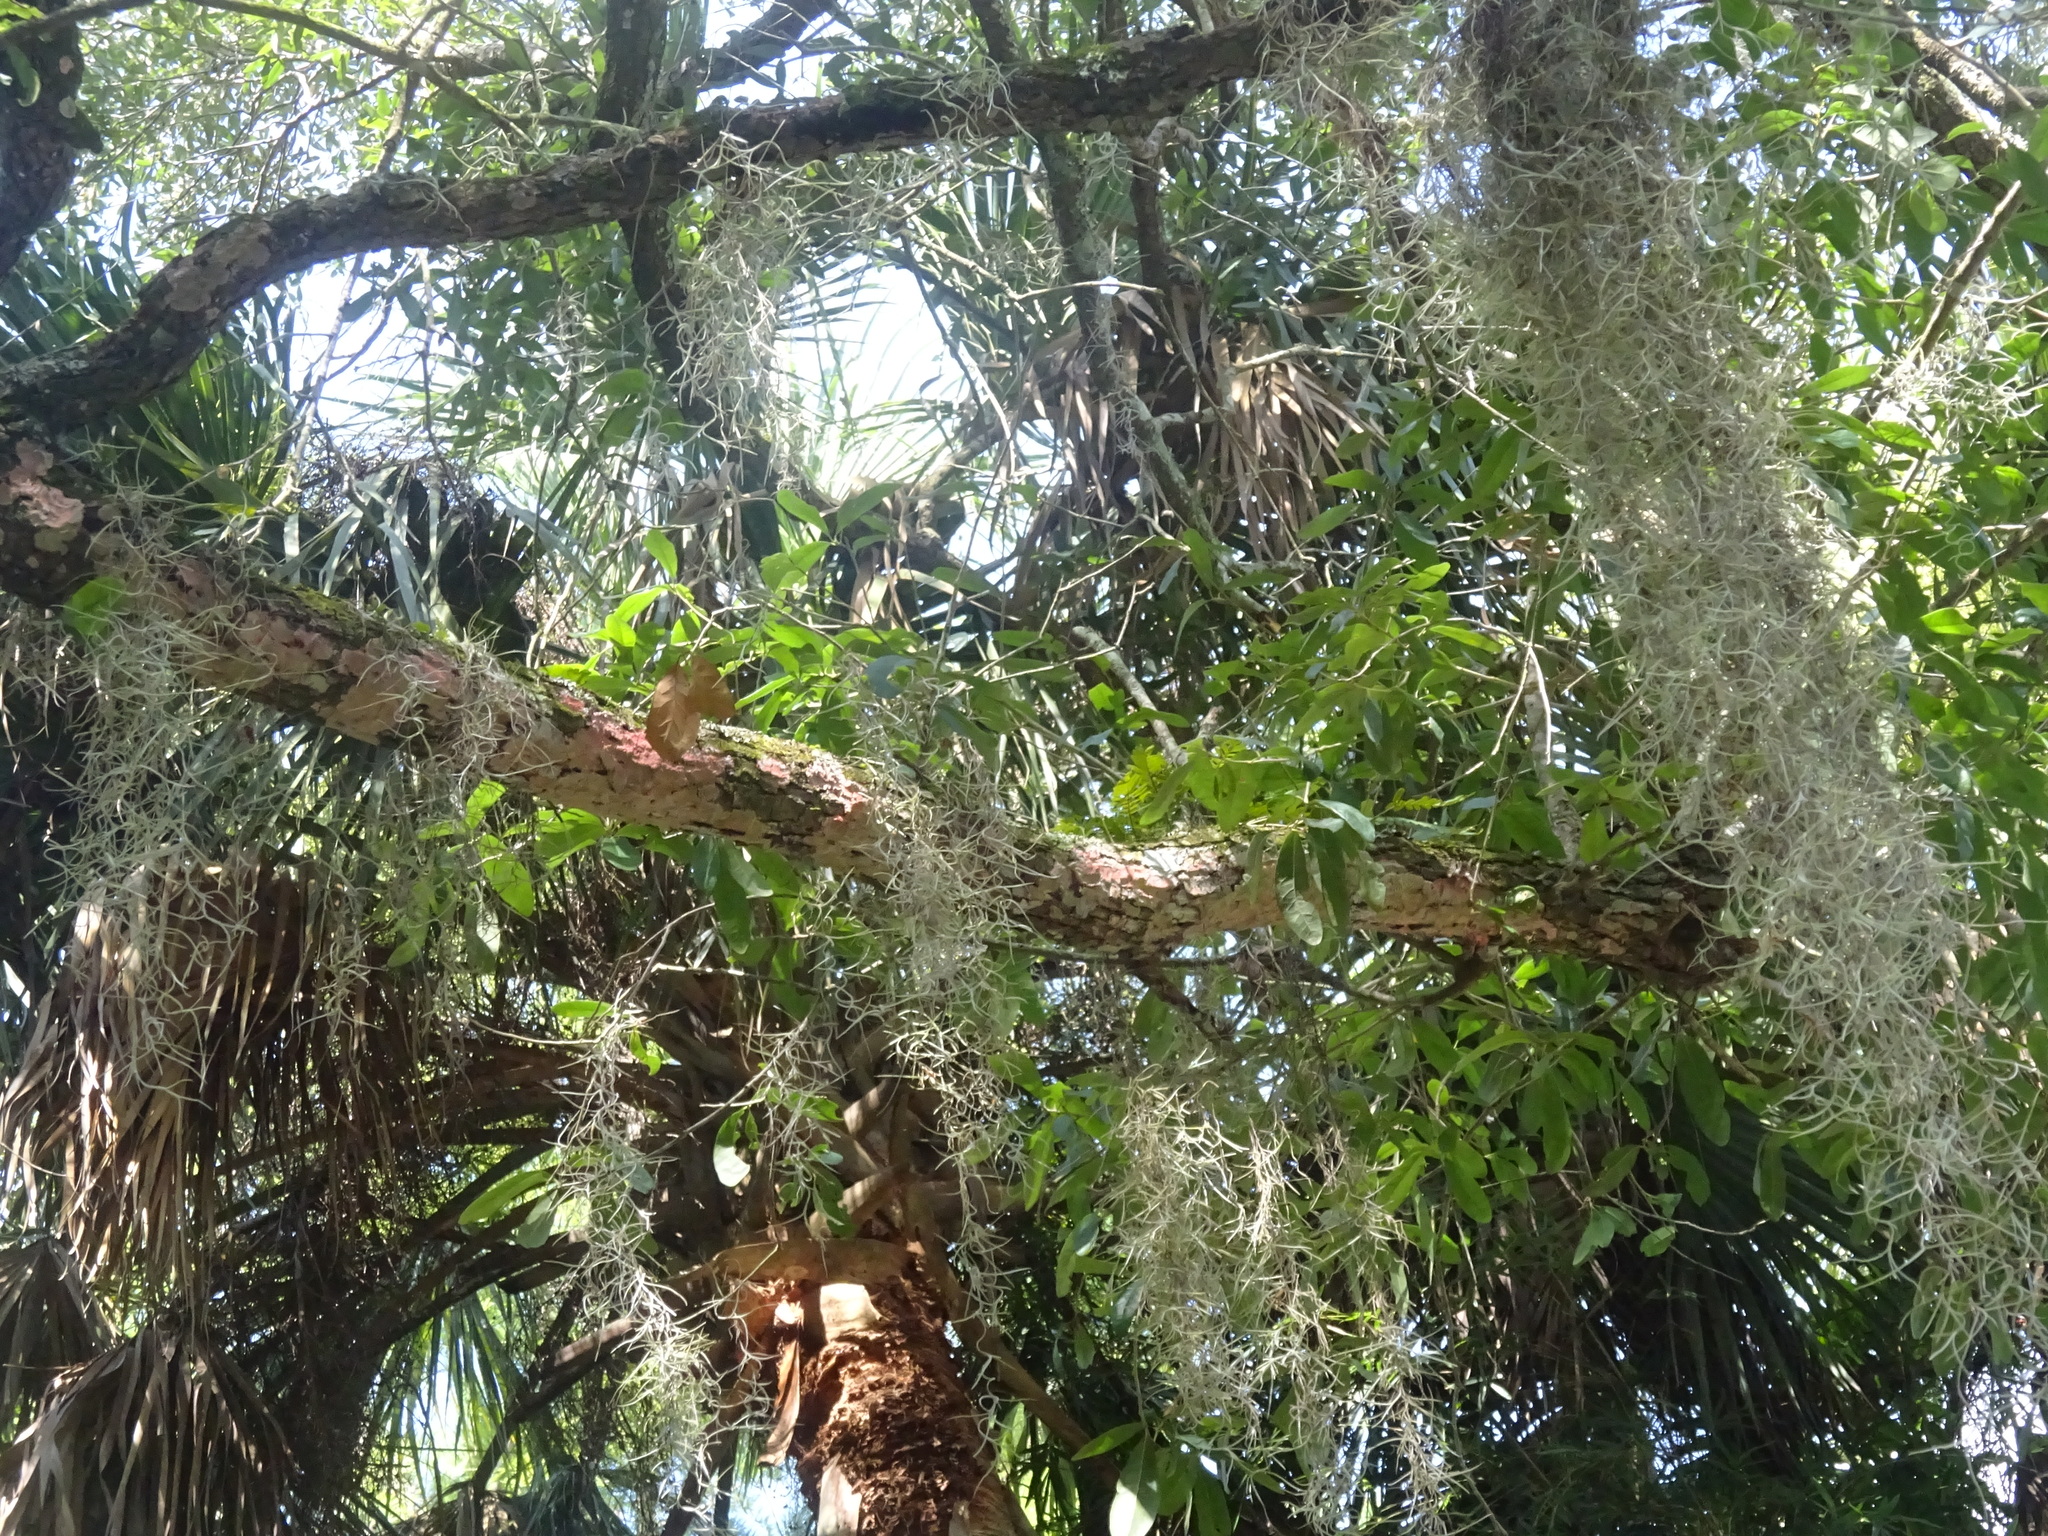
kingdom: Plantae
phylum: Tracheophyta
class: Liliopsida
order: Poales
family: Bromeliaceae
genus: Tillandsia
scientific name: Tillandsia usneoides
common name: Spanish moss
